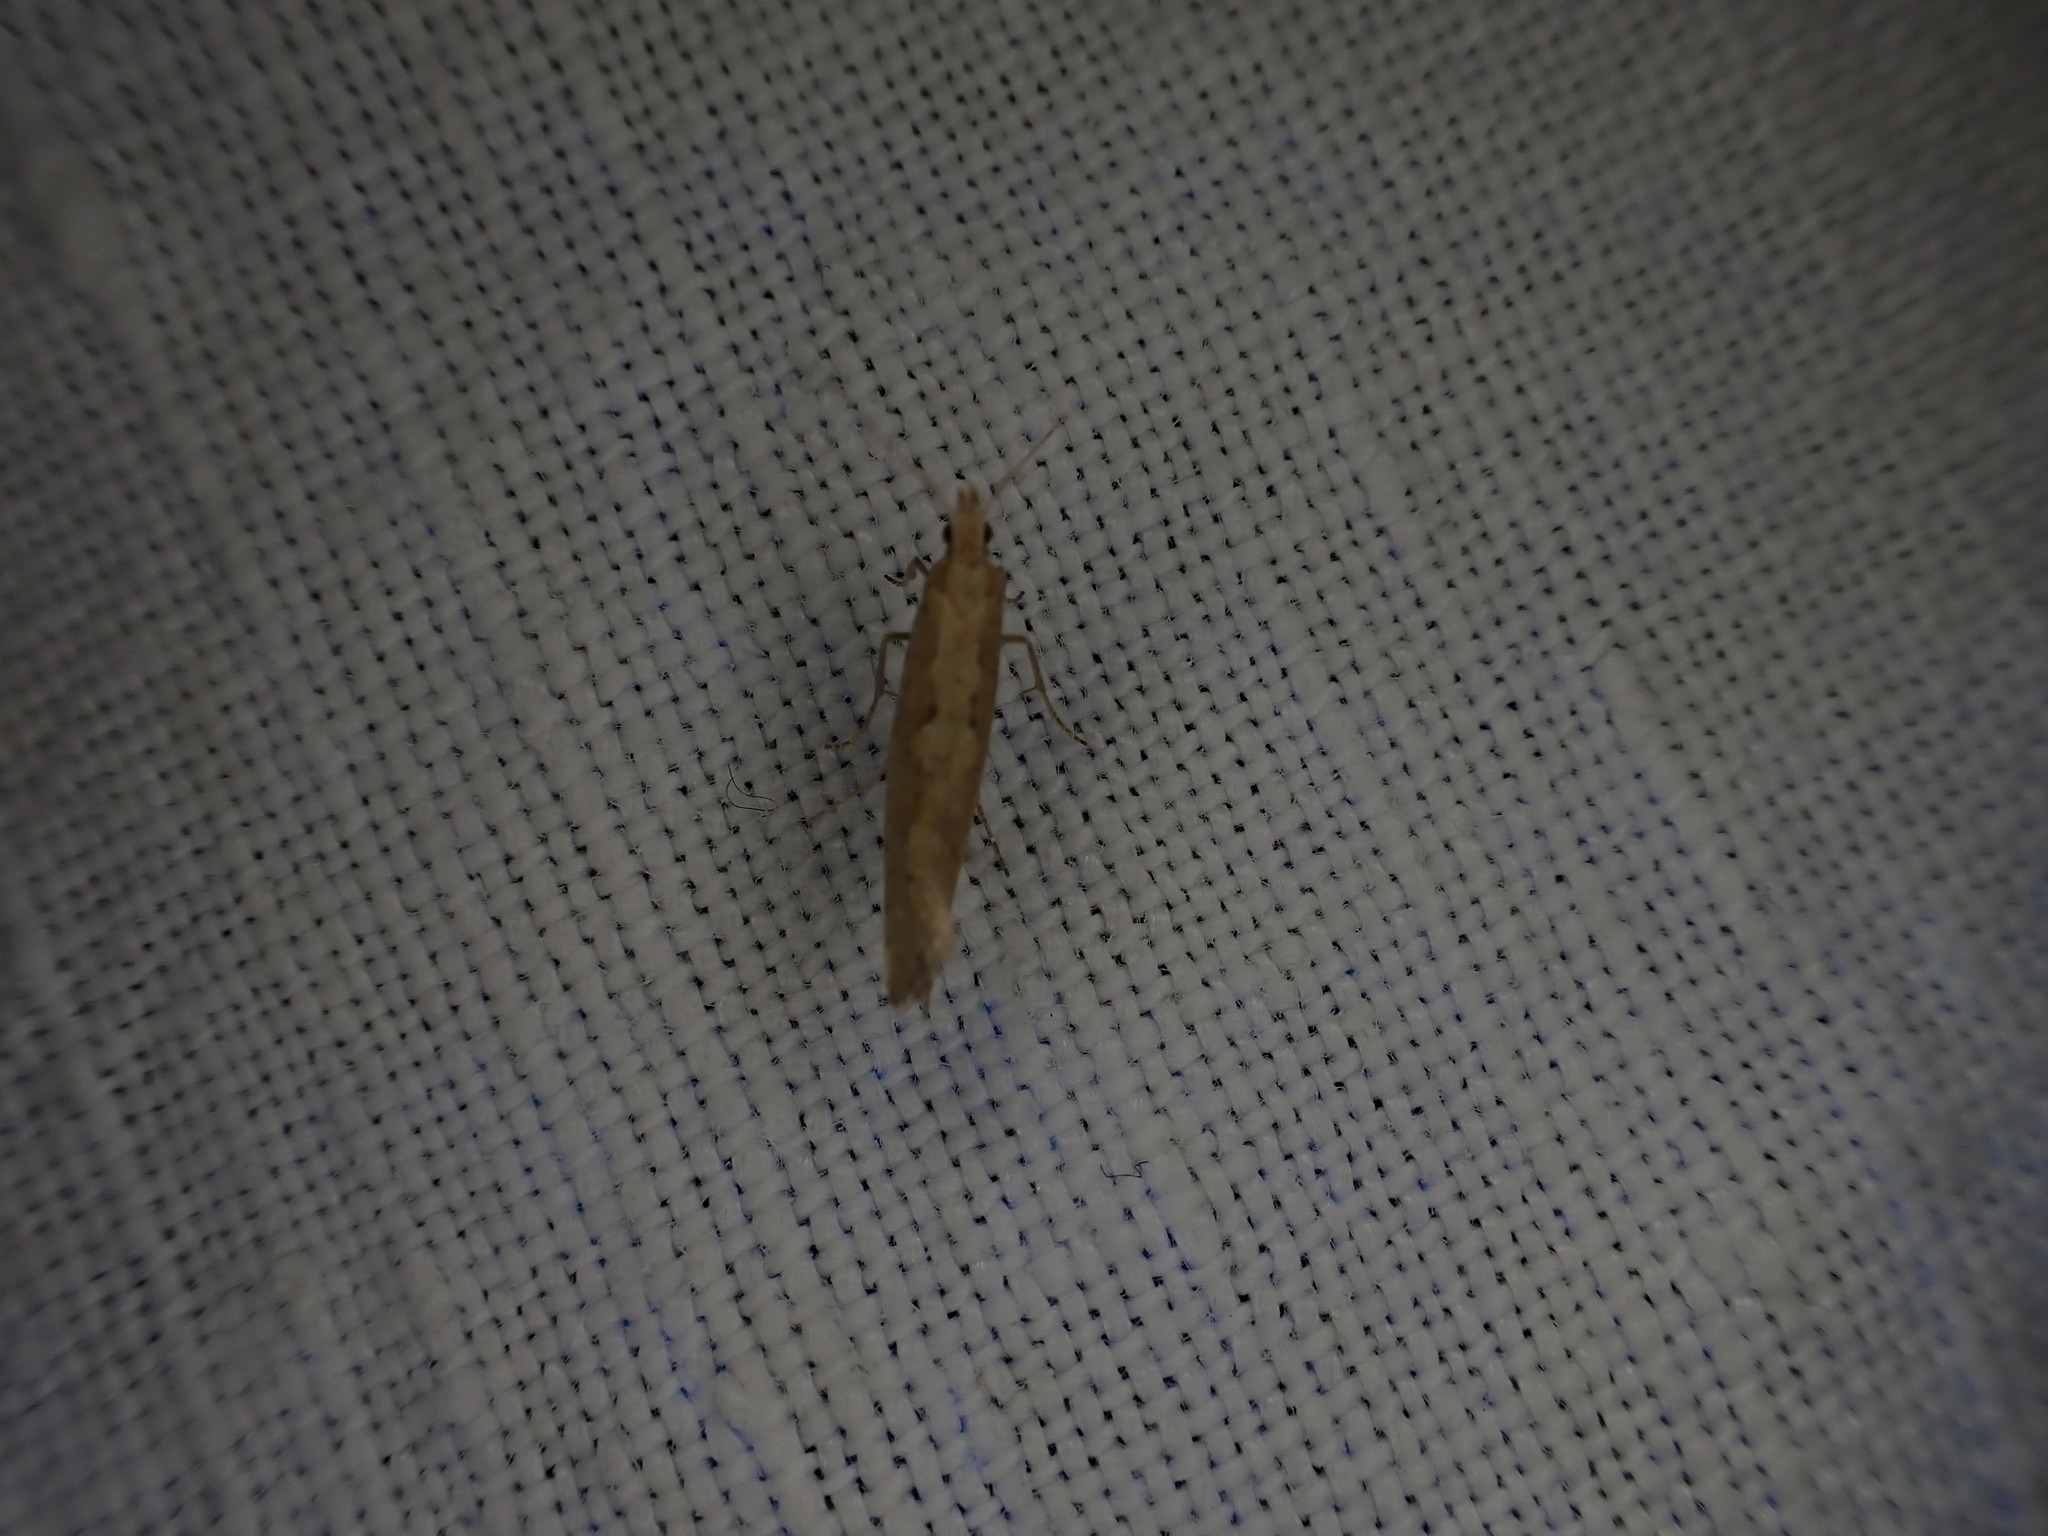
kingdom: Animalia
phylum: Arthropoda
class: Insecta
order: Lepidoptera
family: Plutellidae
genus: Plutella
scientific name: Plutella xylostella
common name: Diamond-back moth
